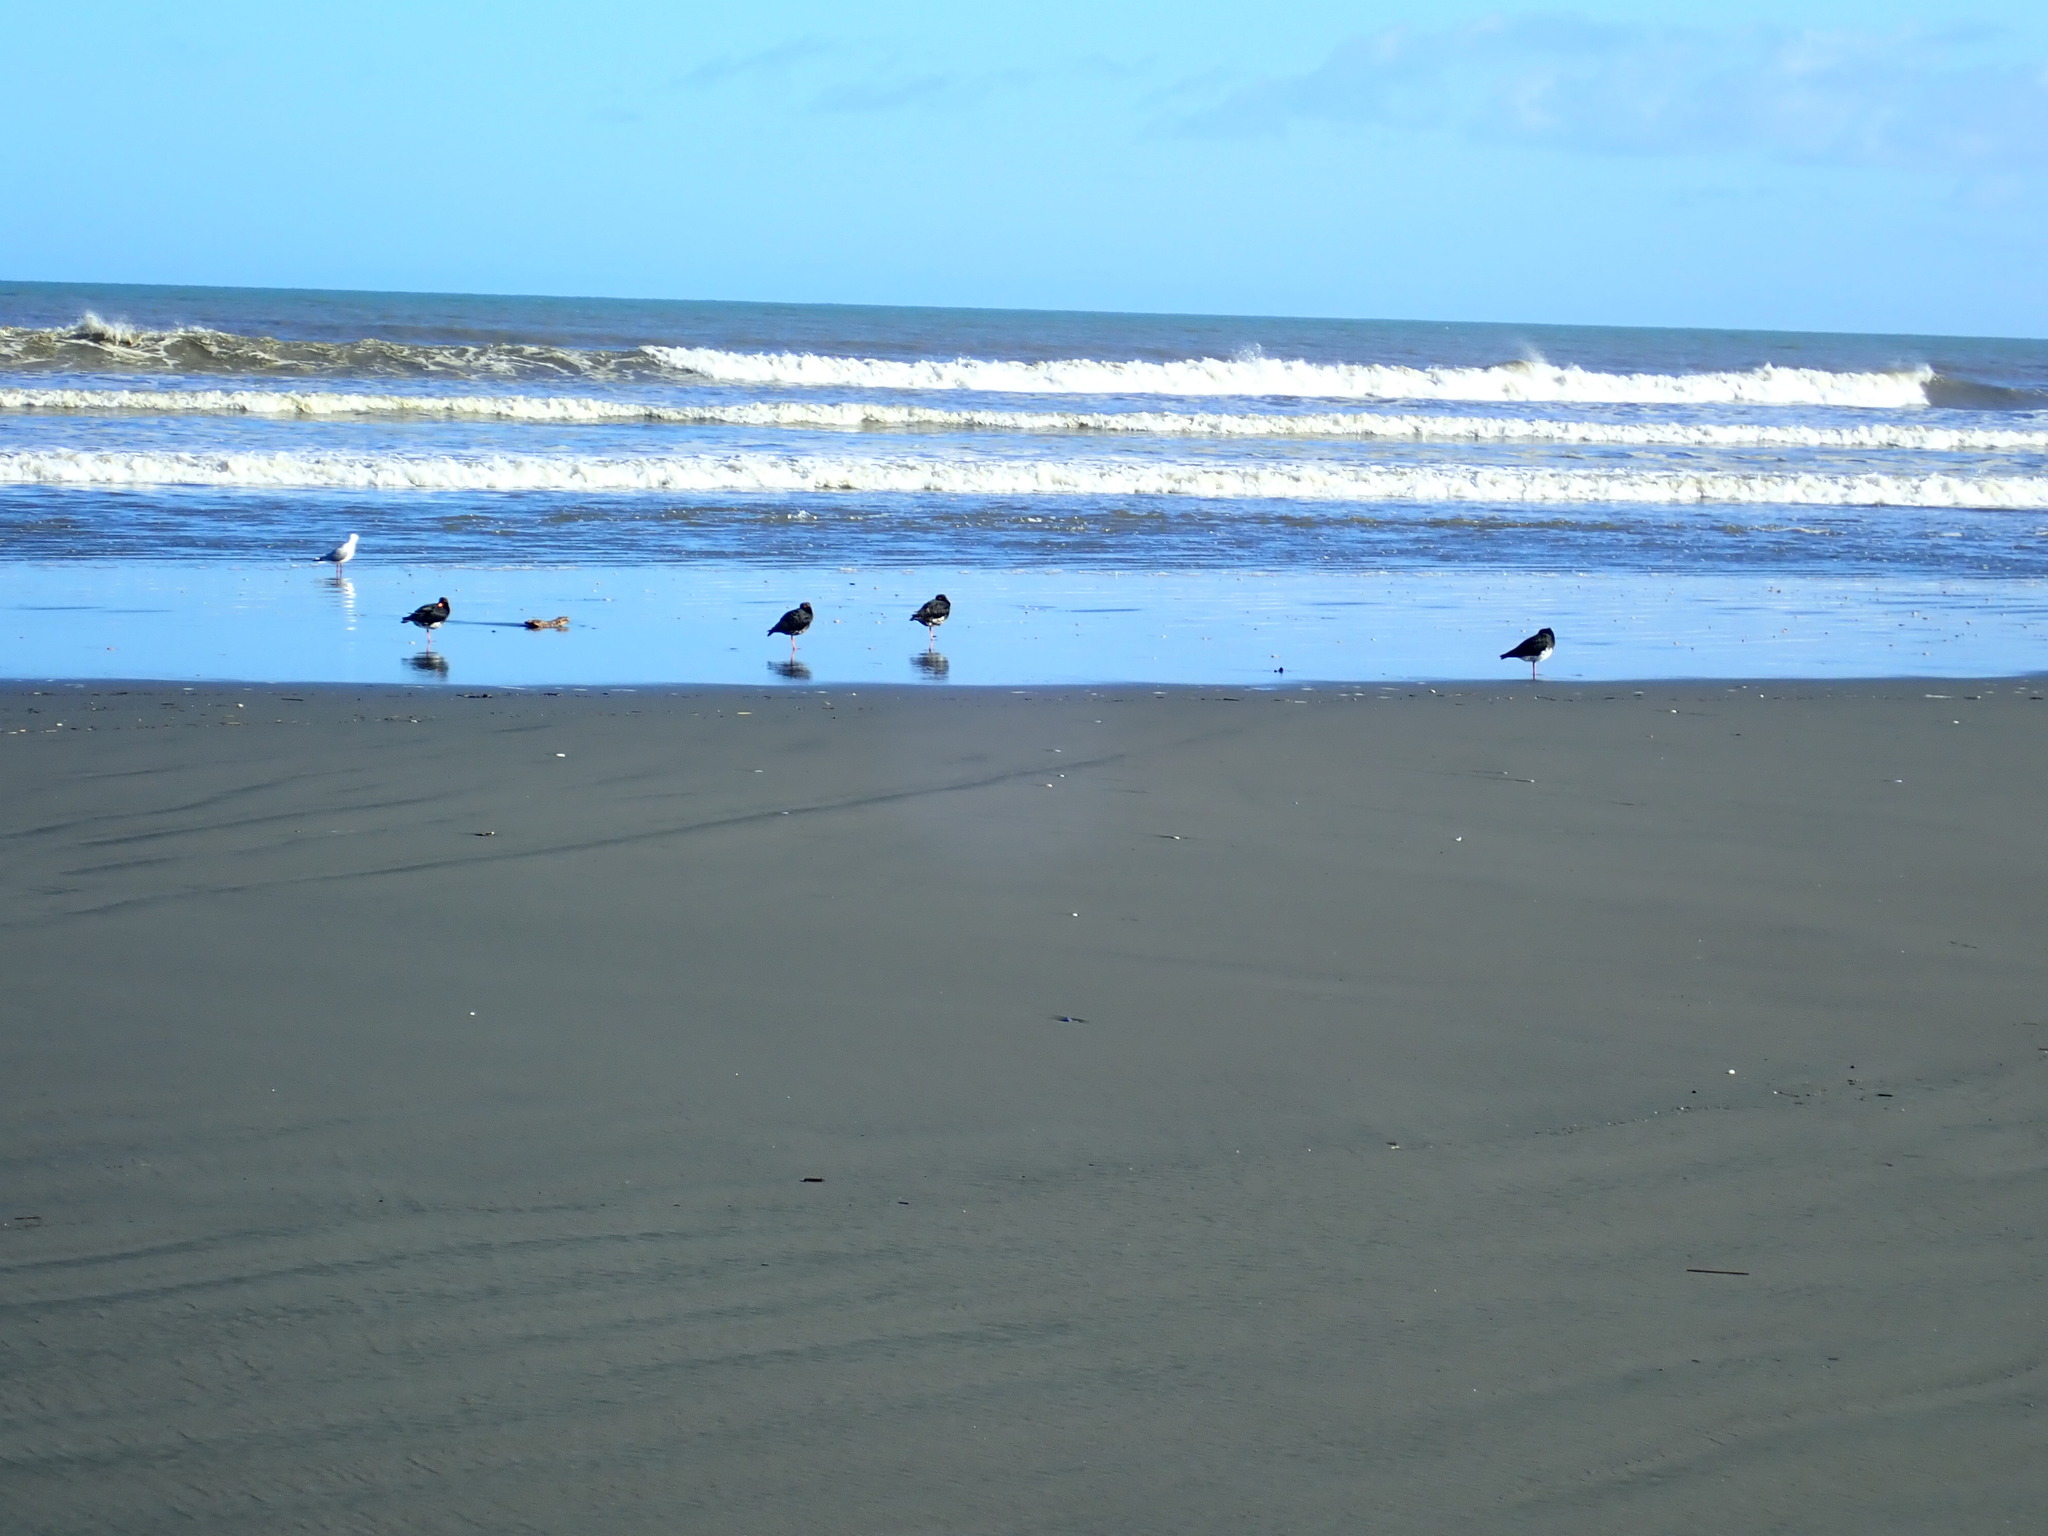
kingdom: Animalia
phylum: Chordata
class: Aves
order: Charadriiformes
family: Haematopodidae
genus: Haematopus
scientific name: Haematopus unicolor
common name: Variable oystercatcher
